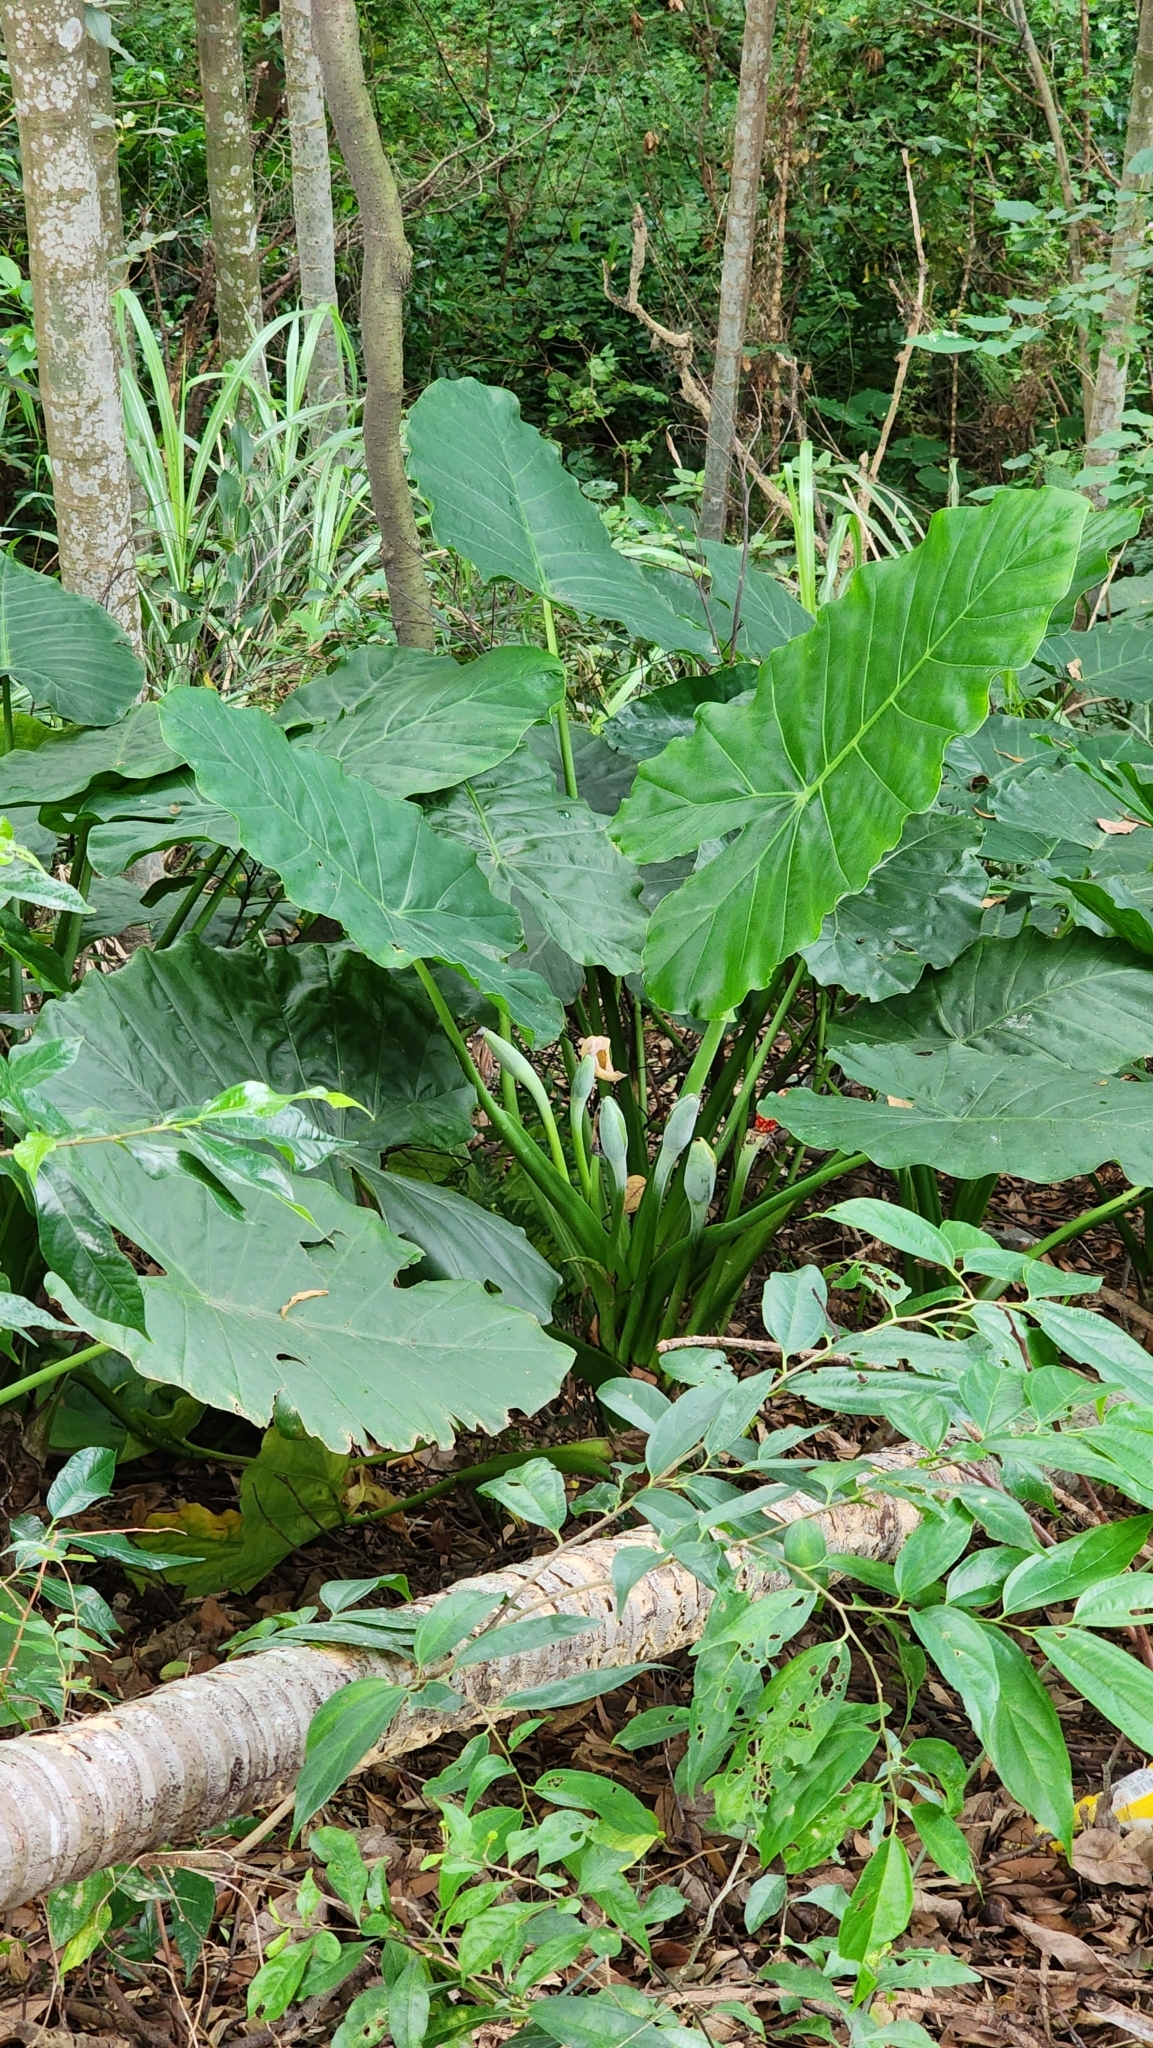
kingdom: Plantae
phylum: Tracheophyta
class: Liliopsida
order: Alismatales
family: Araceae
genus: Alocasia
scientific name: Alocasia odora
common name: Asian taro
